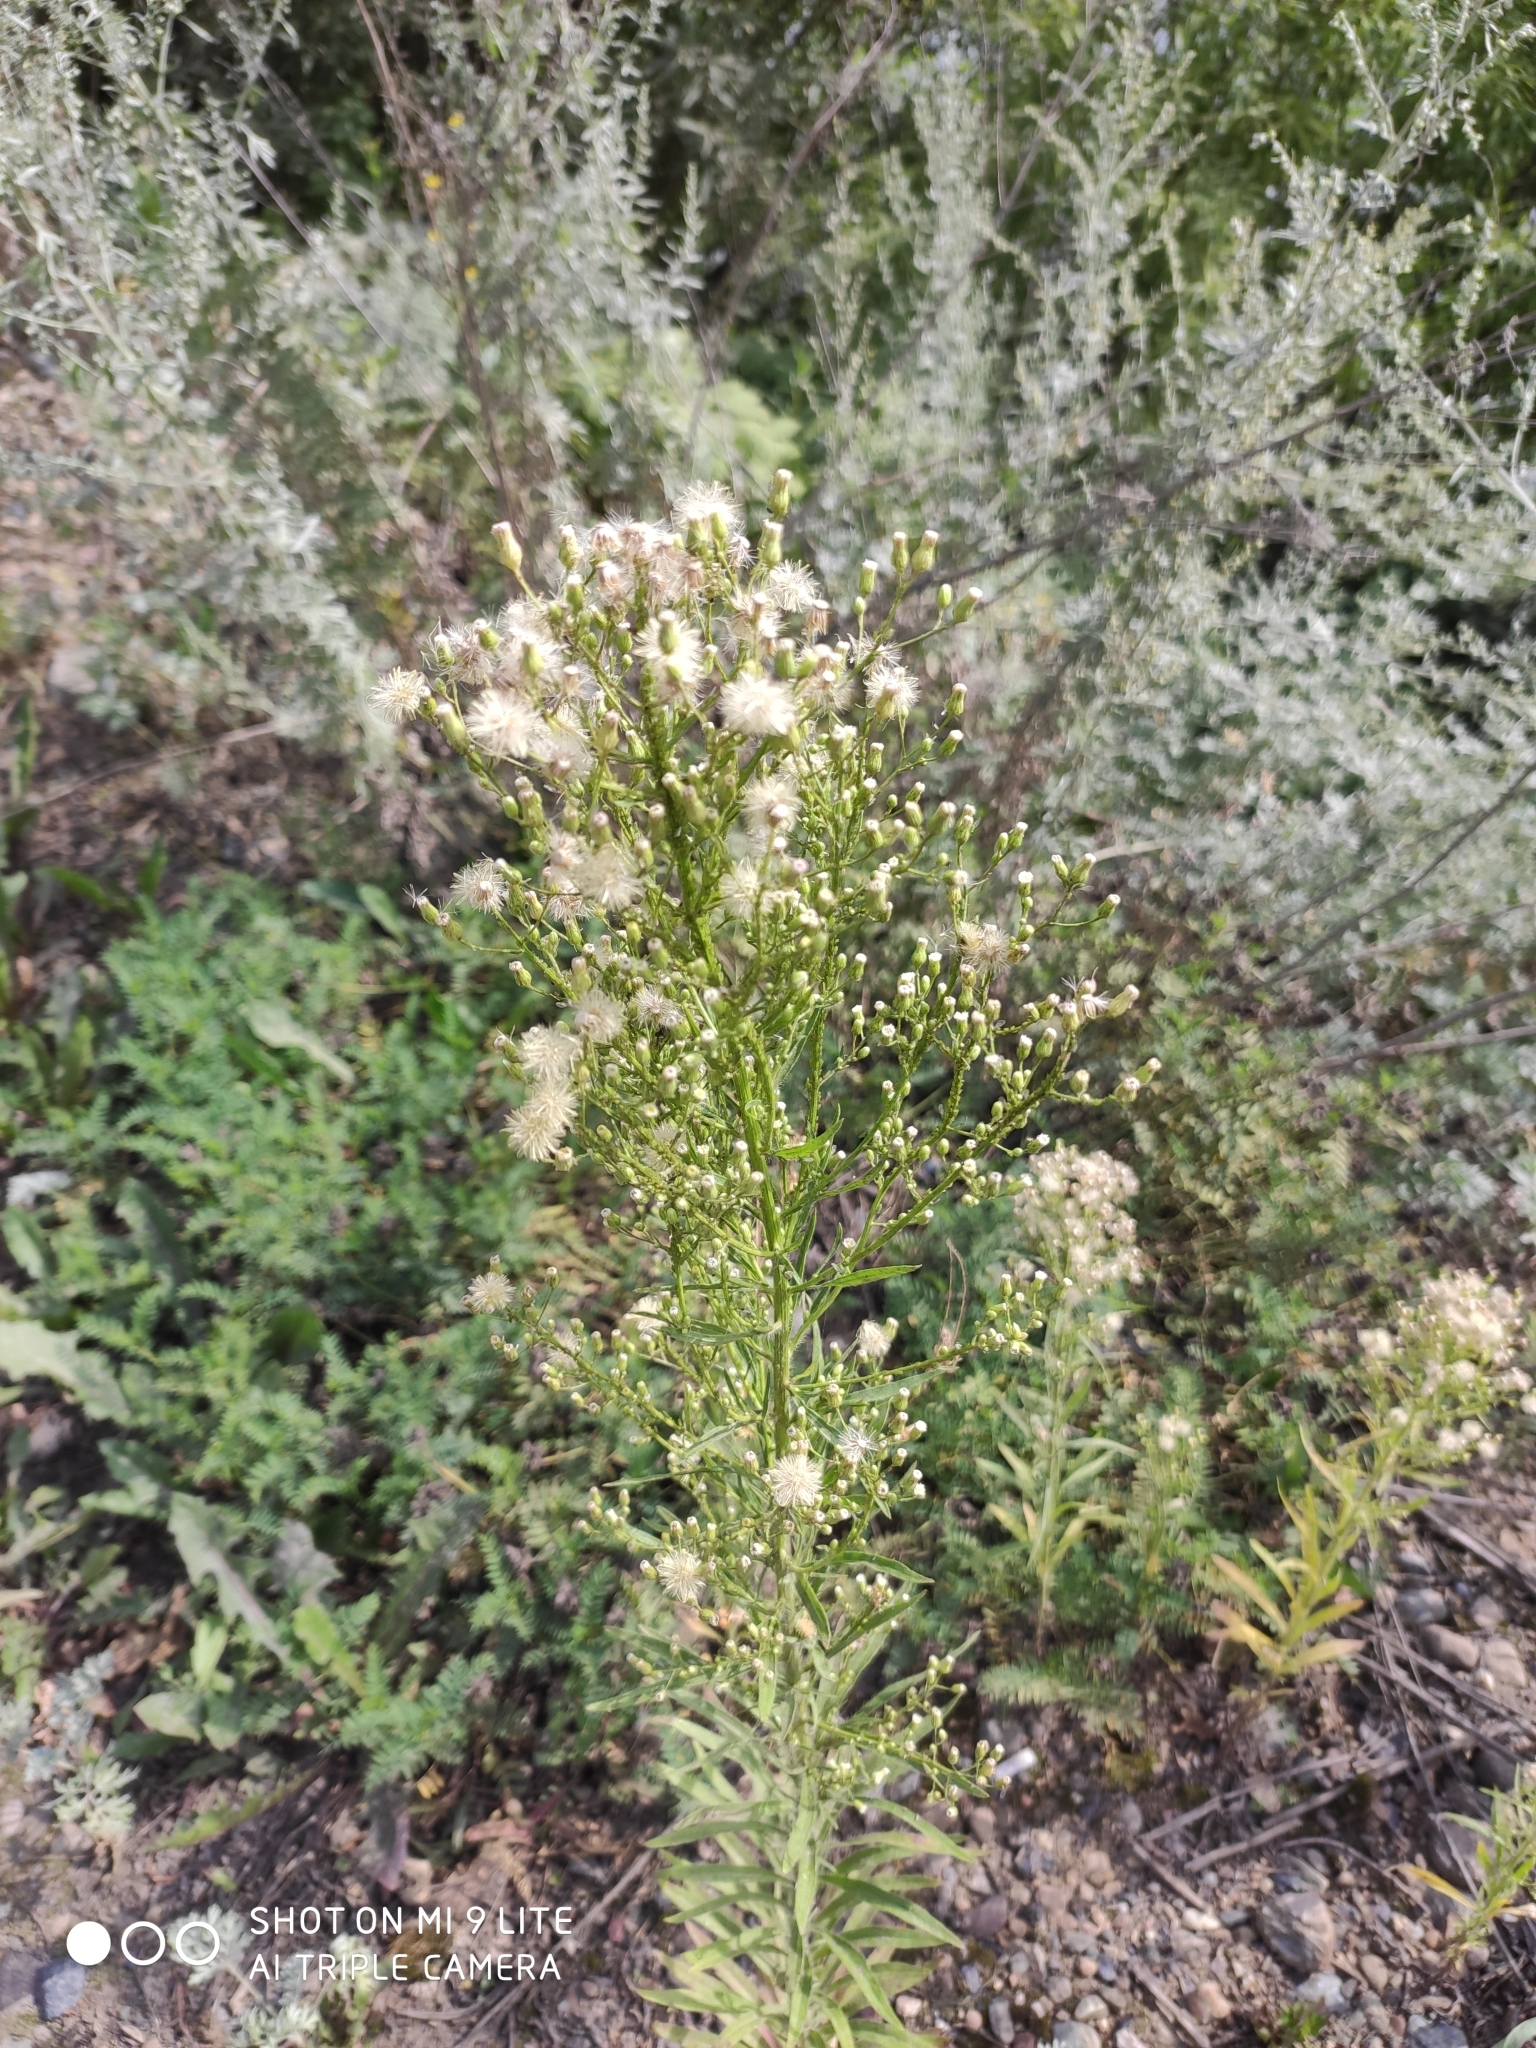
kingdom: Plantae
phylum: Tracheophyta
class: Magnoliopsida
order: Asterales
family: Asteraceae
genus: Erigeron
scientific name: Erigeron canadensis
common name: Canadian fleabane
